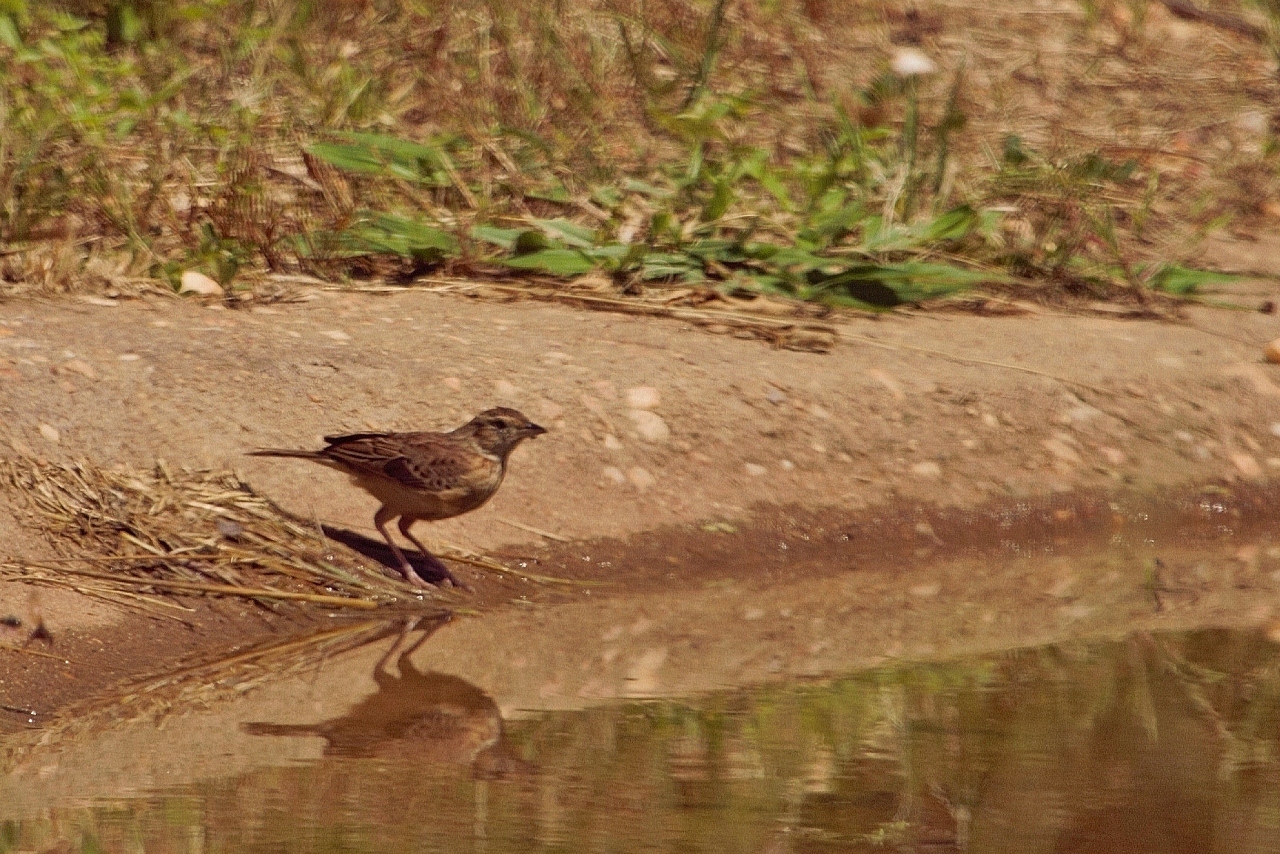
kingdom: Animalia
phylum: Chordata
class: Aves
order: Passeriformes
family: Alaudidae
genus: Mirafra
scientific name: Mirafra africana
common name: Rufous-naped lark
